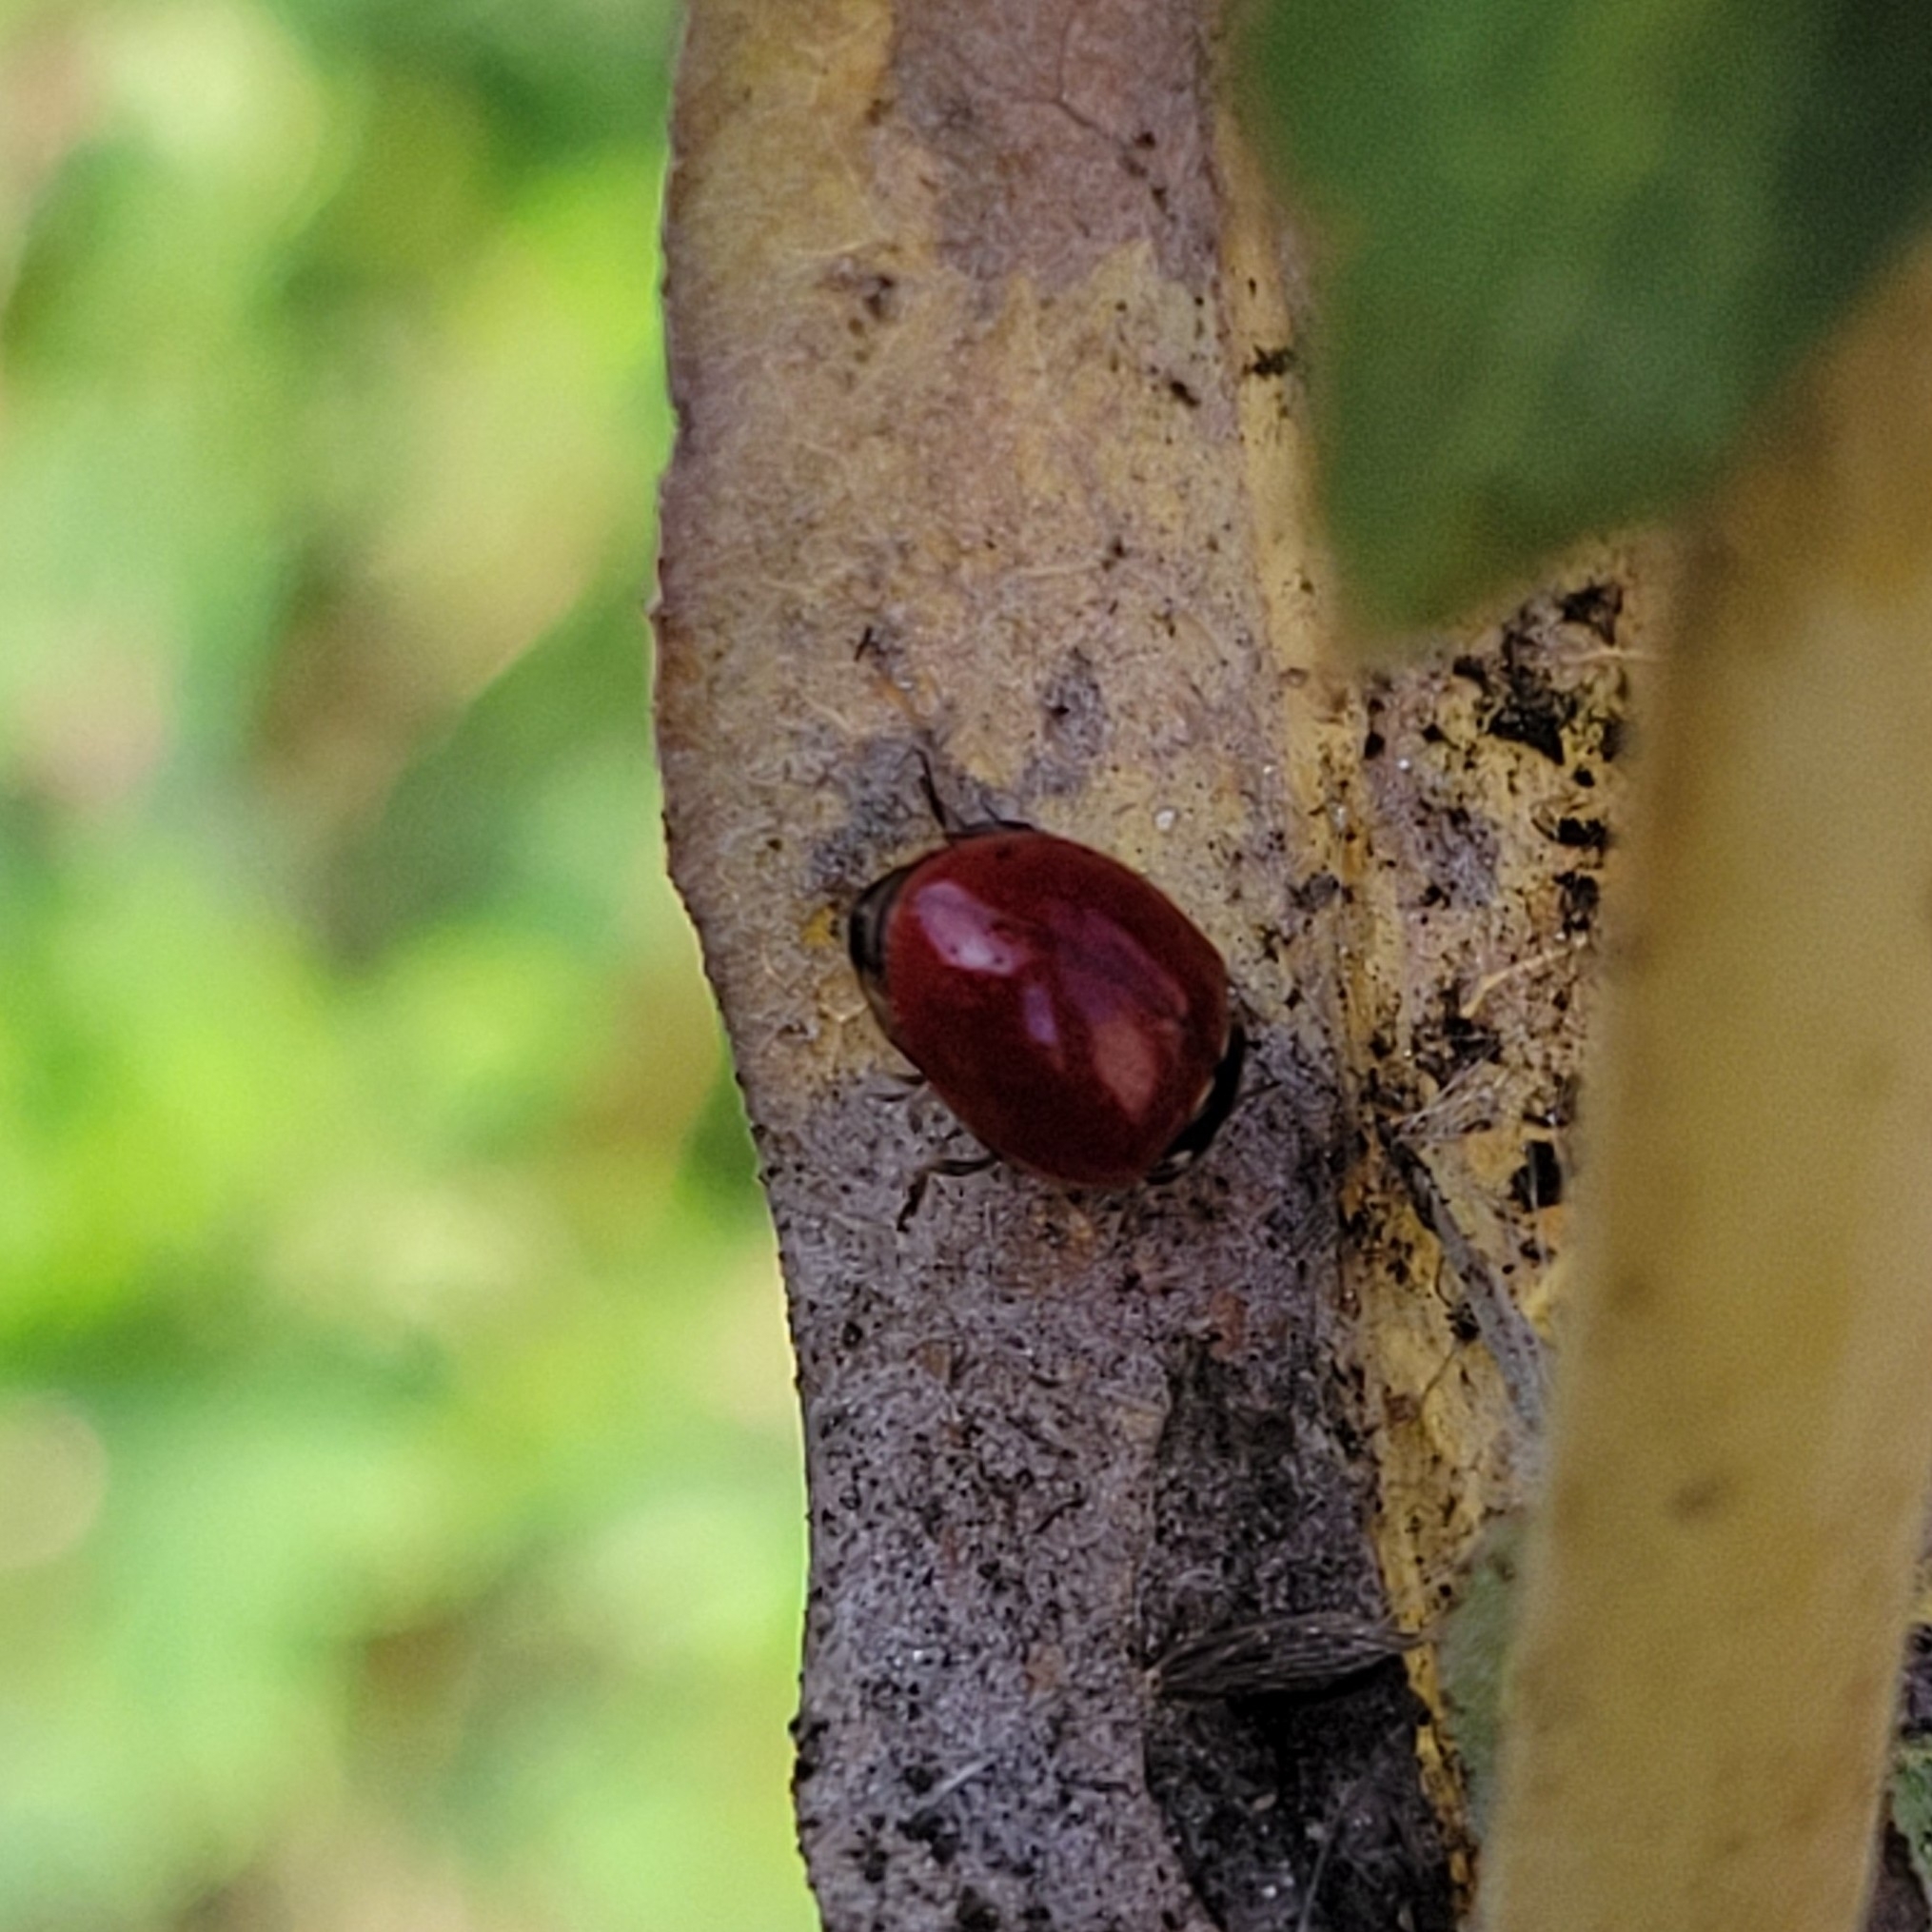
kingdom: Animalia
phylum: Arthropoda
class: Insecta
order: Coleoptera
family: Coccinellidae
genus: Cycloneda
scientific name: Cycloneda polita
